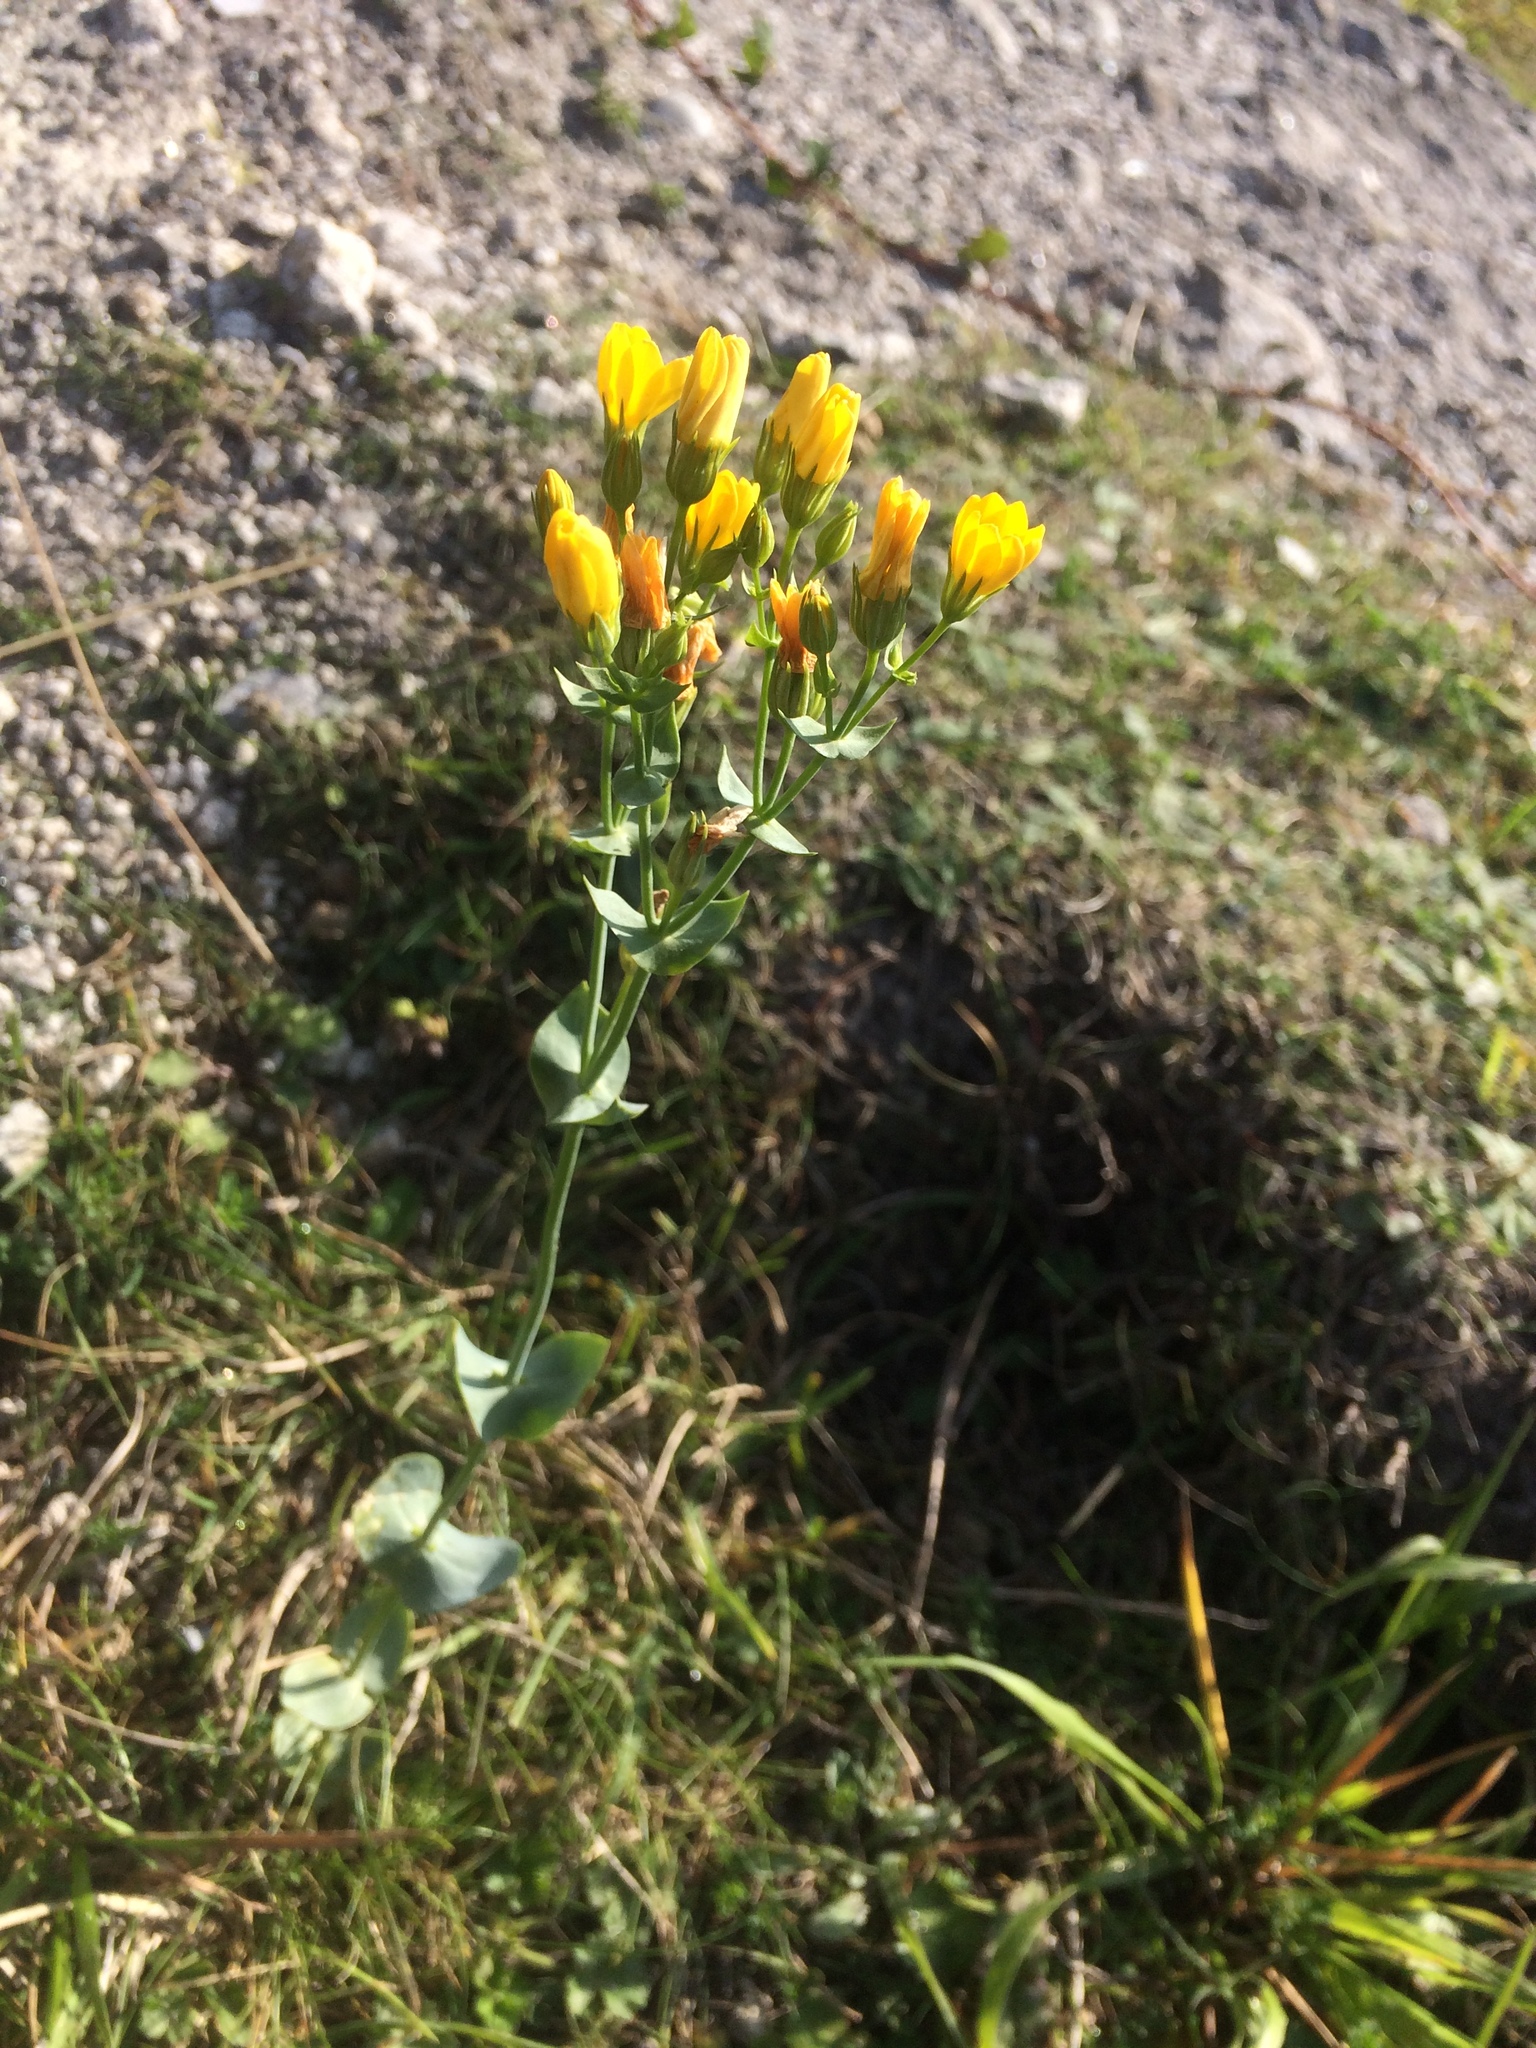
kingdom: Plantae
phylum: Tracheophyta
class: Magnoliopsida
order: Gentianales
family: Gentianaceae
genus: Blackstonia
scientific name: Blackstonia perfoliata
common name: Yellow-wort
